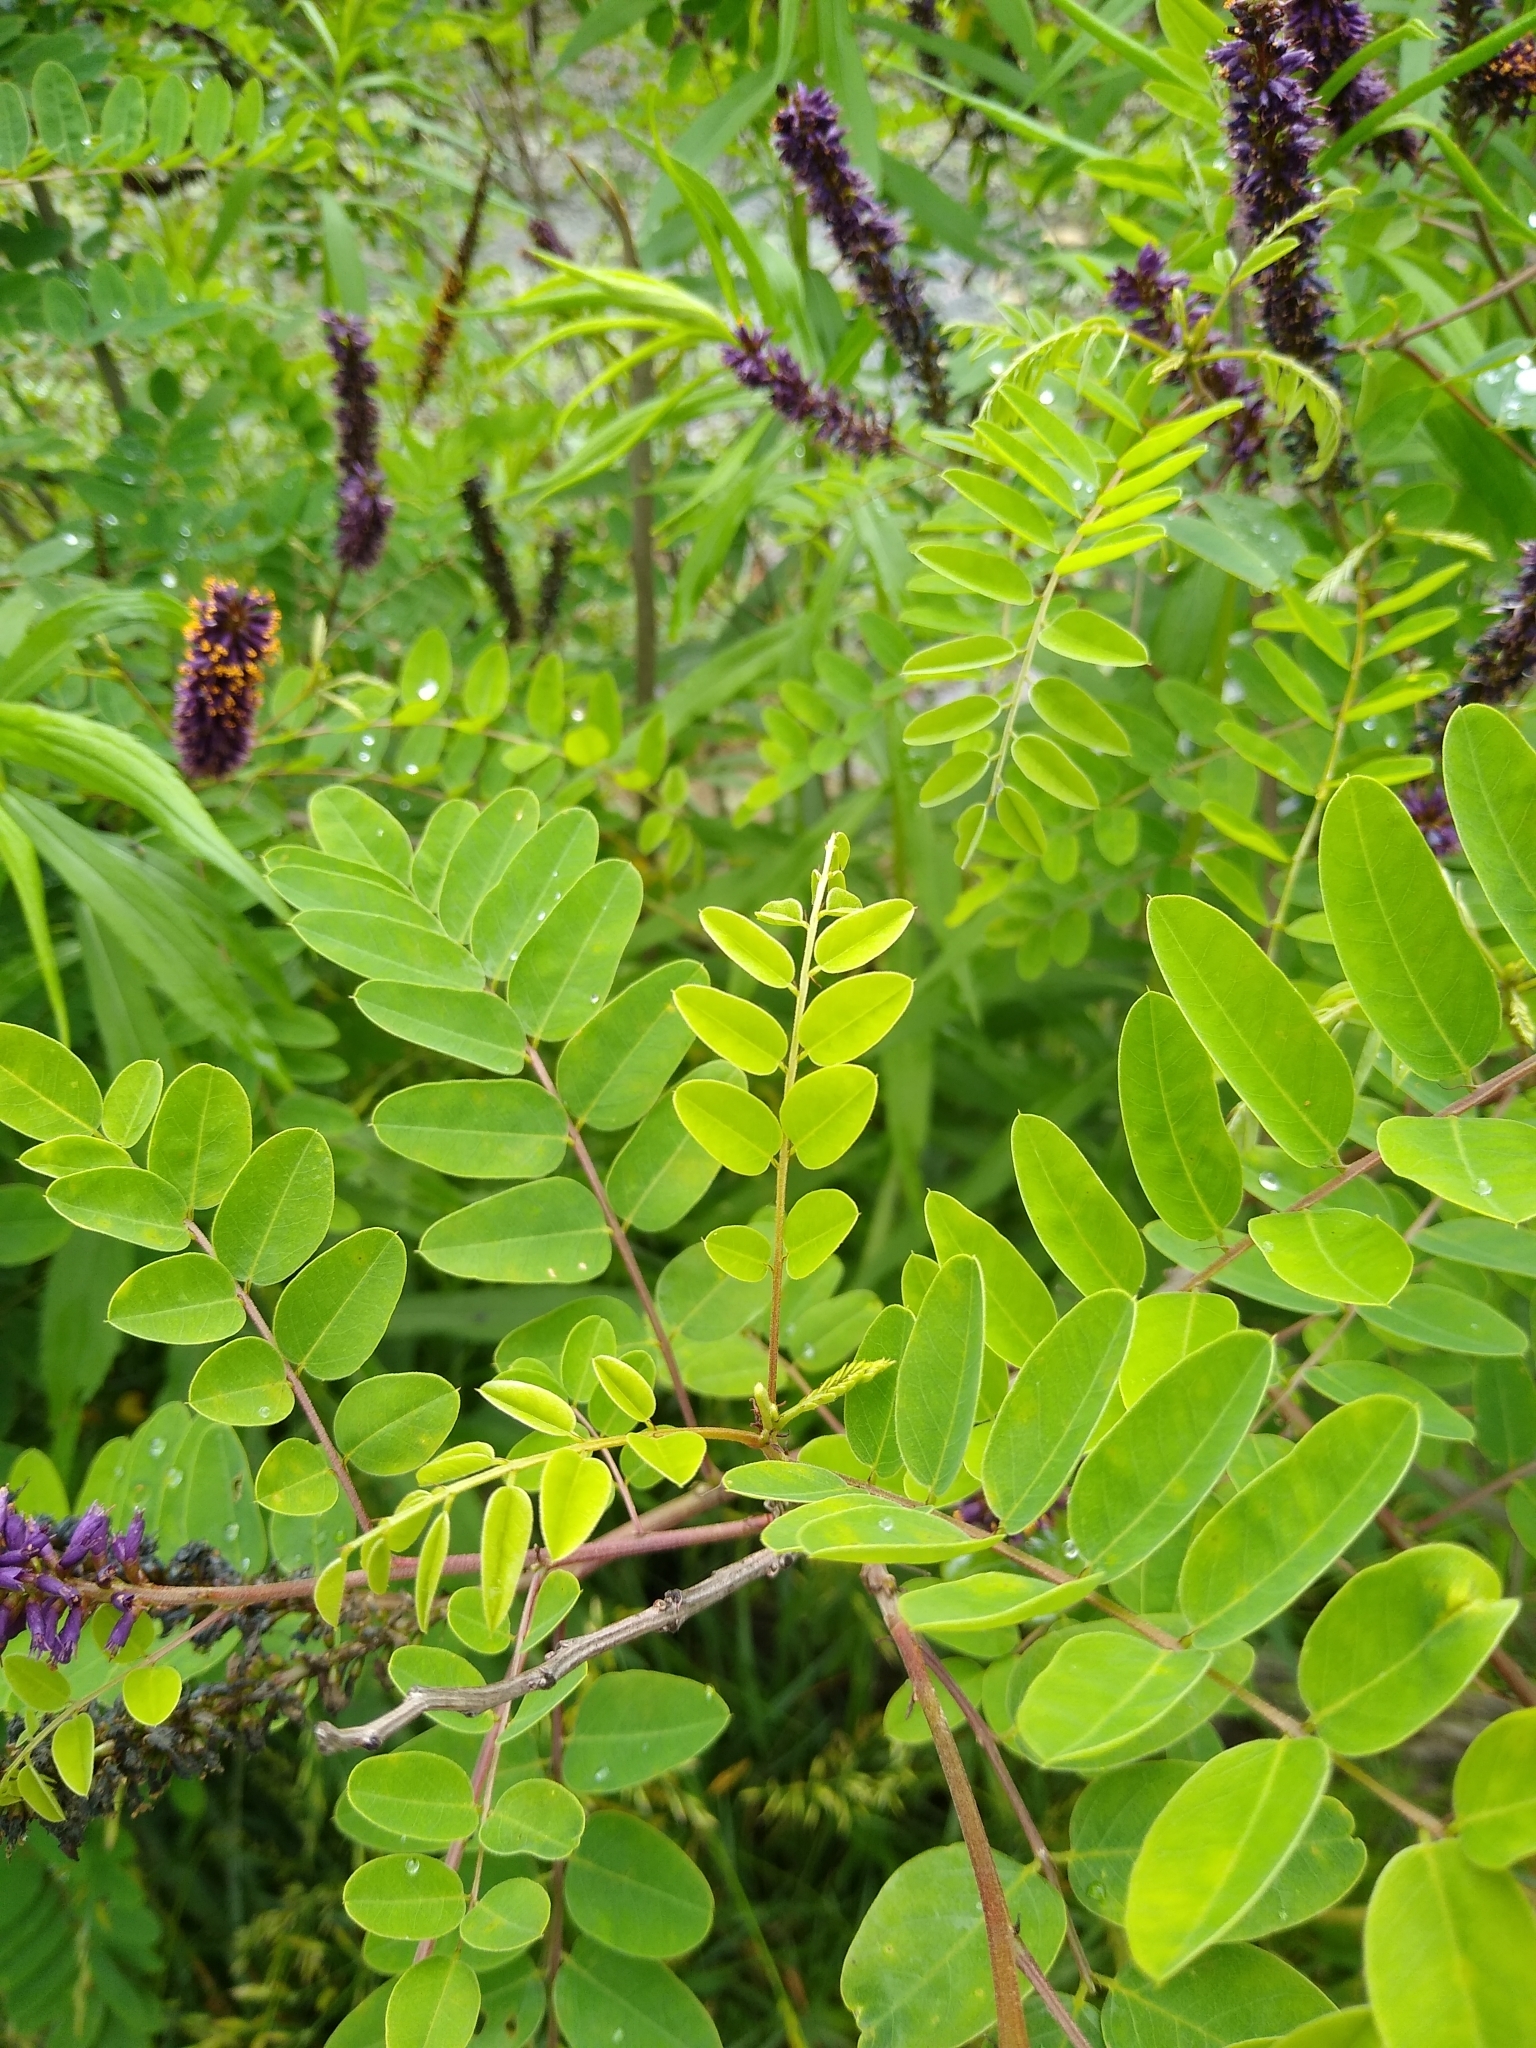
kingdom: Plantae
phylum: Tracheophyta
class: Magnoliopsida
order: Fabales
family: Fabaceae
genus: Amorpha
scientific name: Amorpha fruticosa
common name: False indigo
